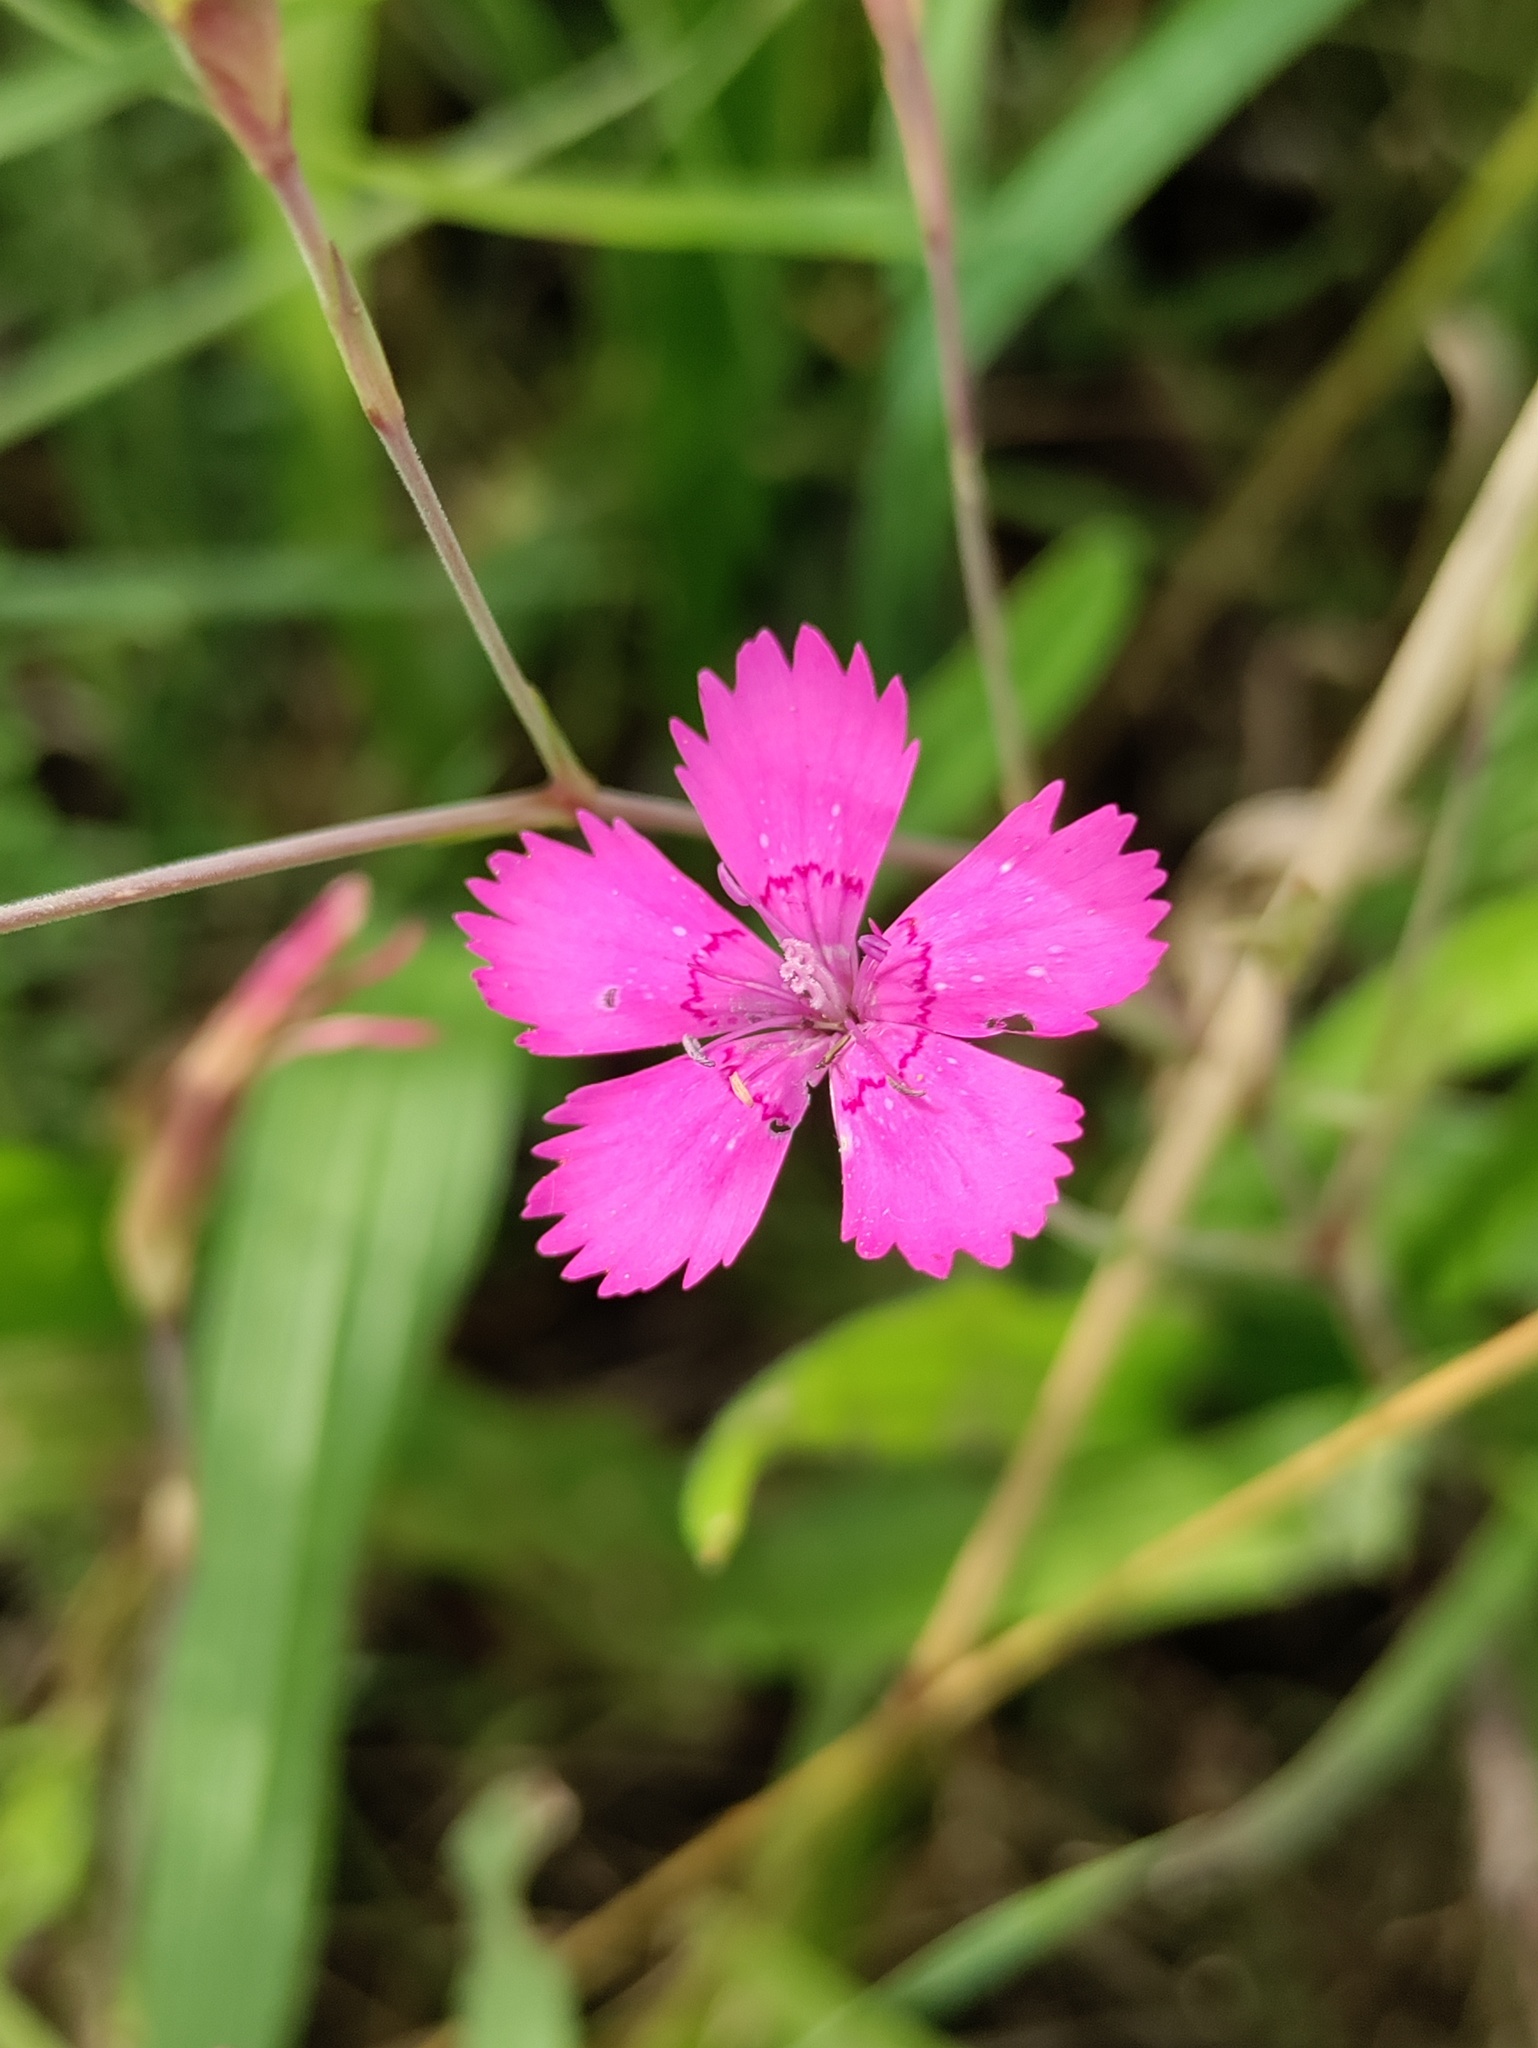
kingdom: Plantae
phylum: Tracheophyta
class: Magnoliopsida
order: Caryophyllales
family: Caryophyllaceae
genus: Dianthus
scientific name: Dianthus deltoides
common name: Maiden pink
